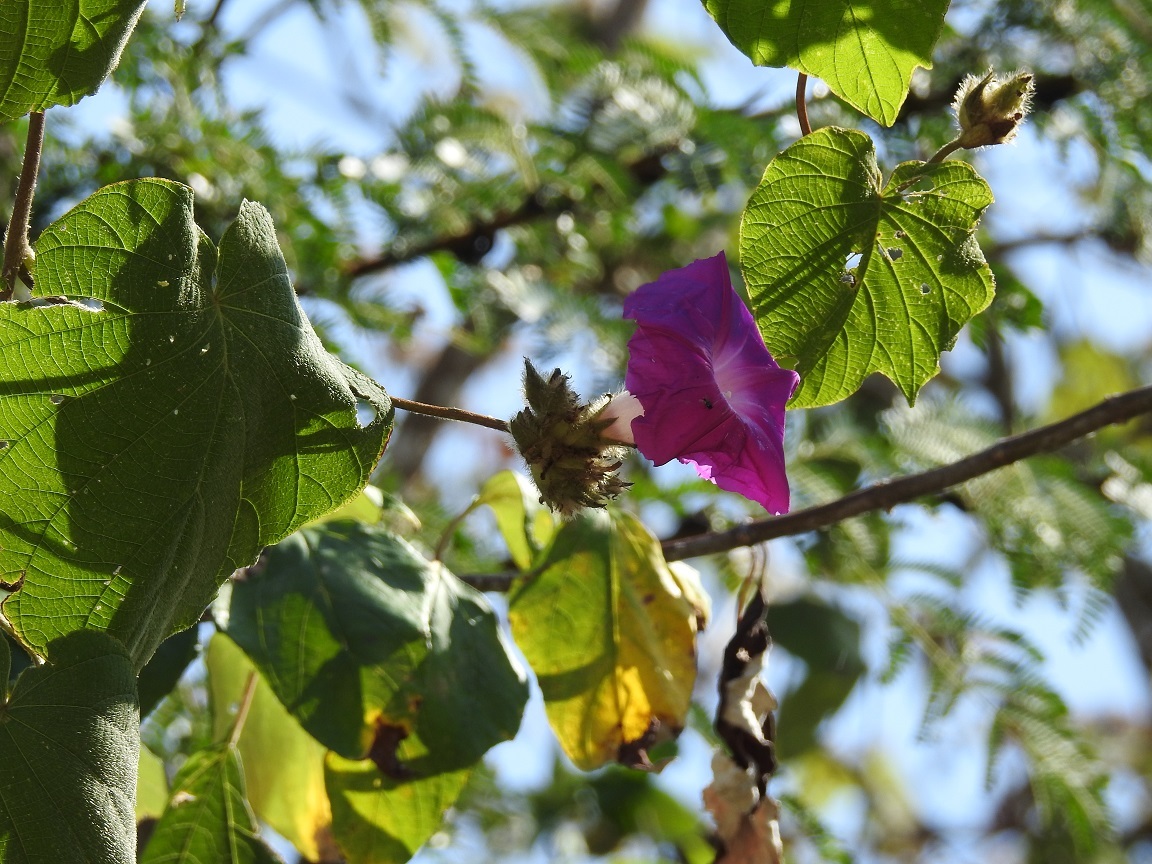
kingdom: Plantae
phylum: Tracheophyta
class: Magnoliopsida
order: Solanales
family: Convolvulaceae
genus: Ipomoea
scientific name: Ipomoea villifera
